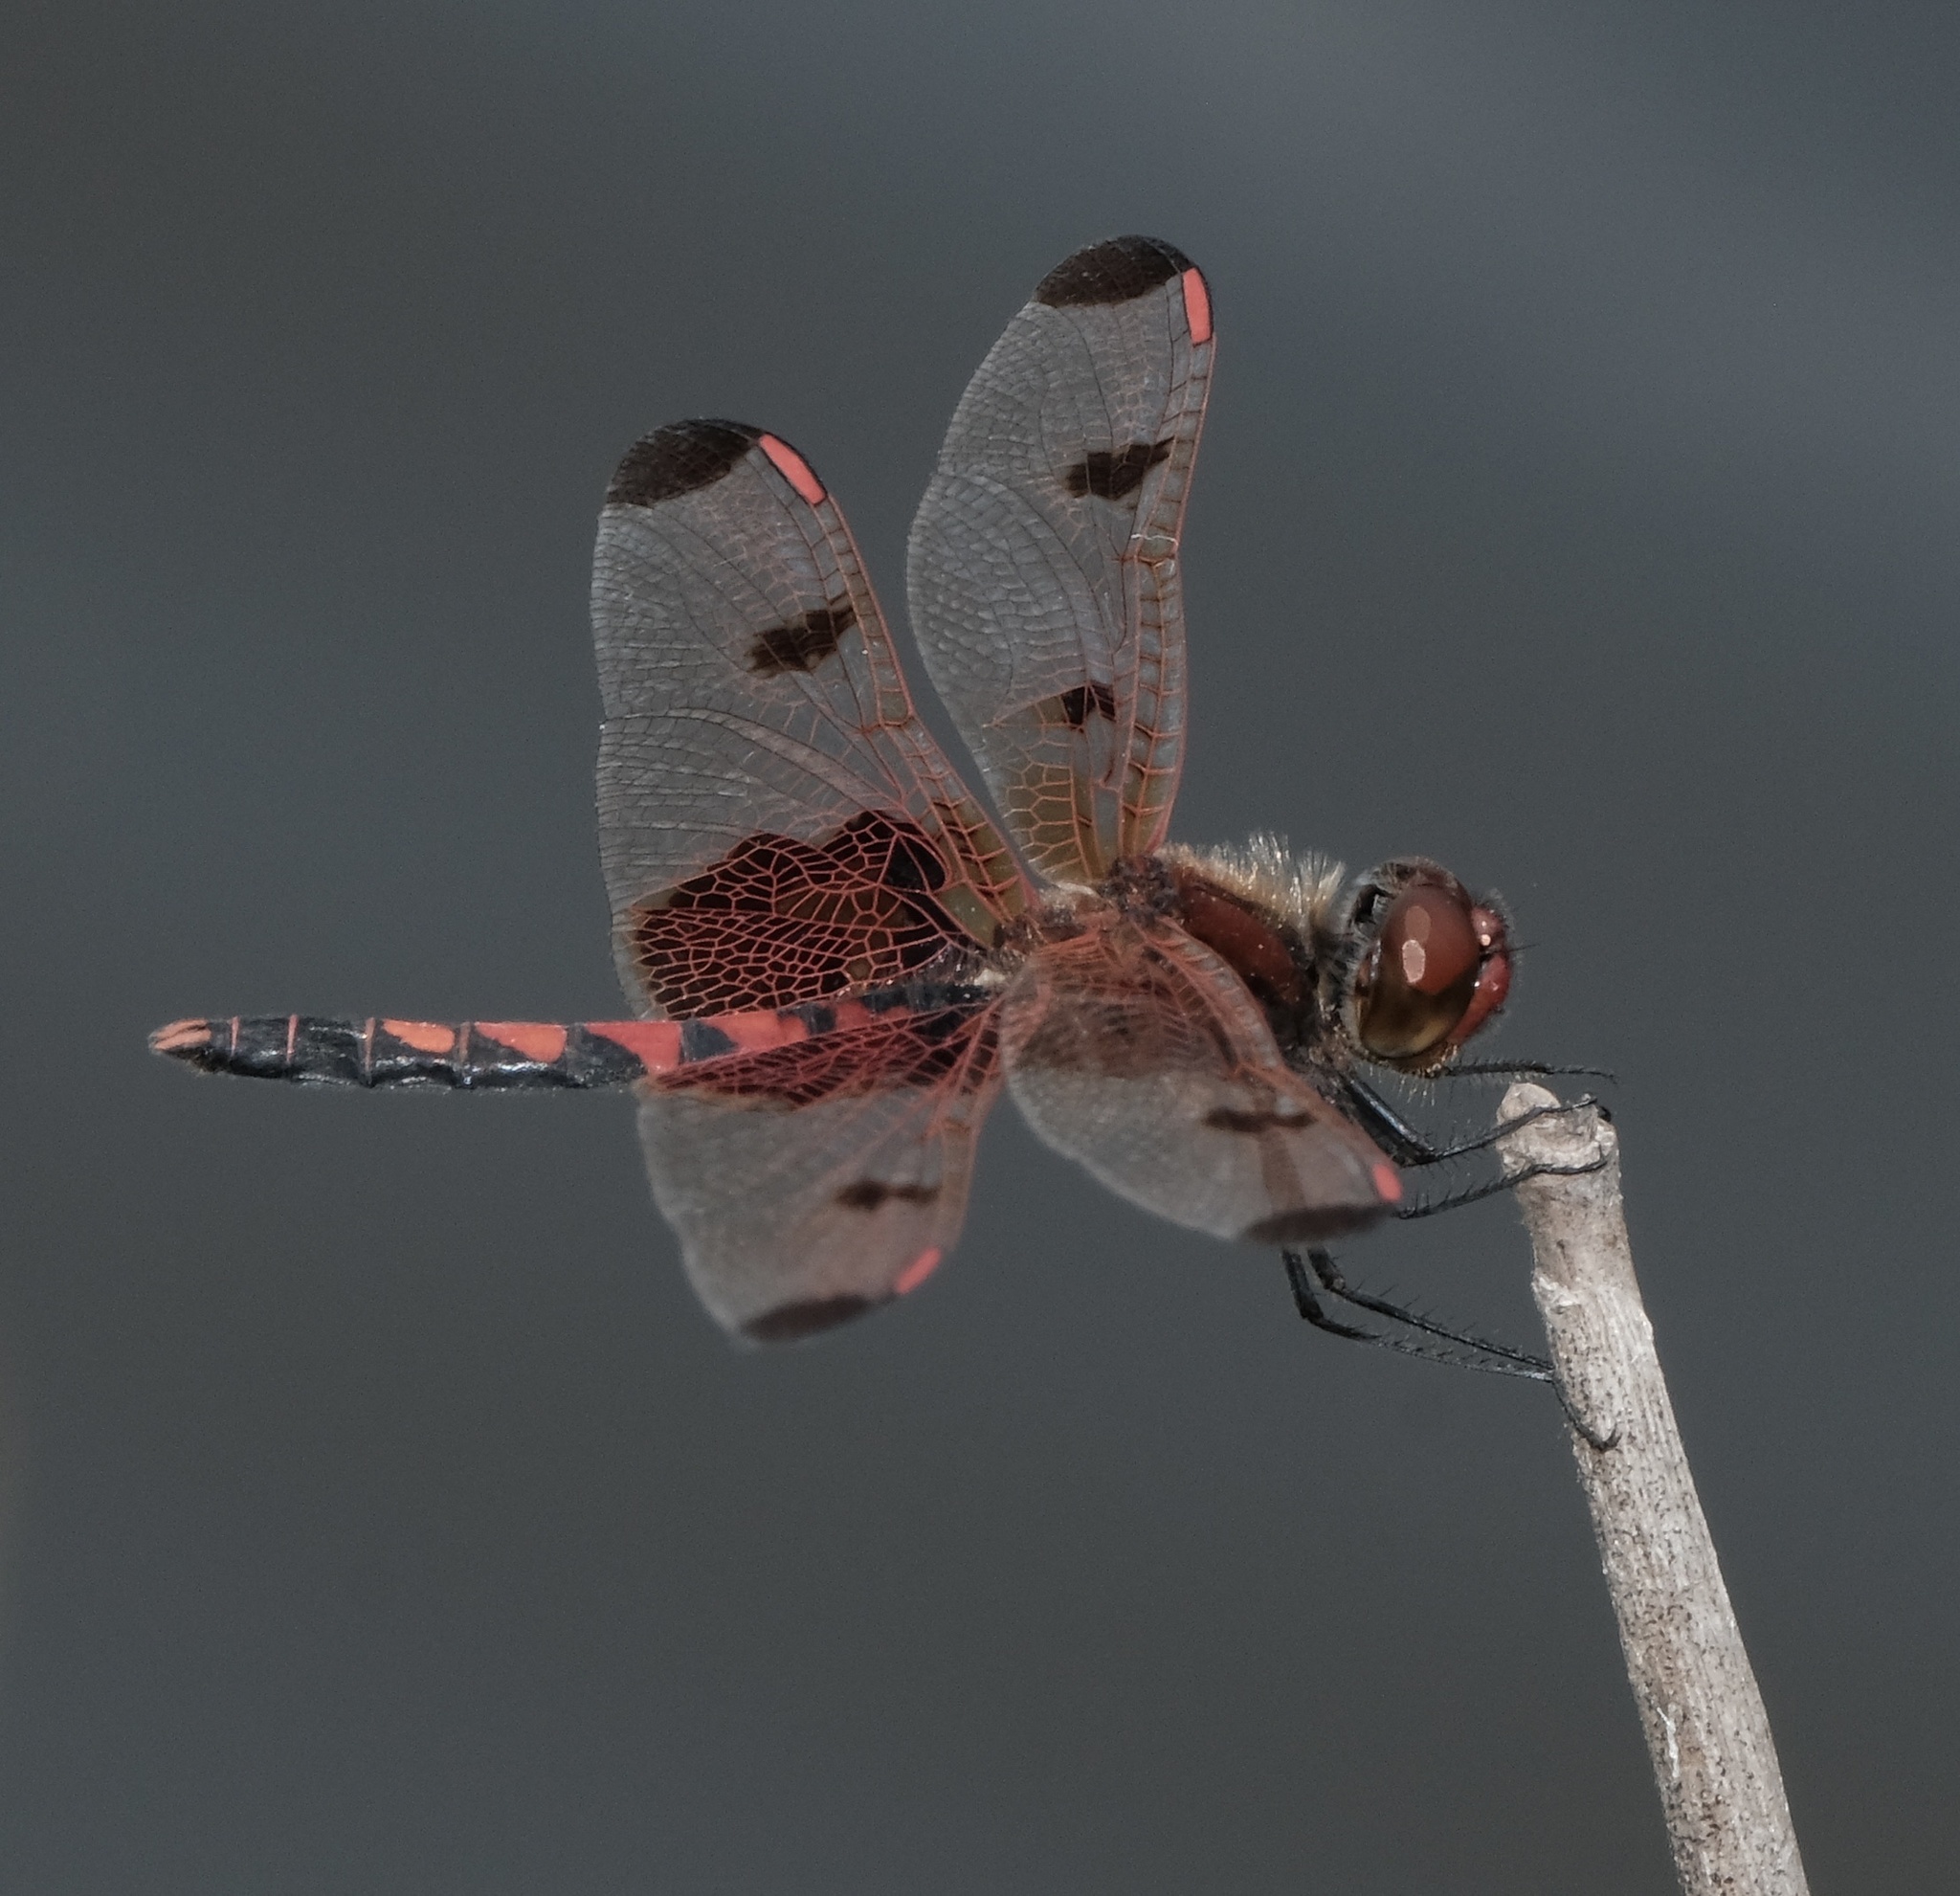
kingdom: Animalia
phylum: Arthropoda
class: Insecta
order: Odonata
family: Libellulidae
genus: Celithemis
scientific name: Celithemis elisa
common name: Calico pennant
